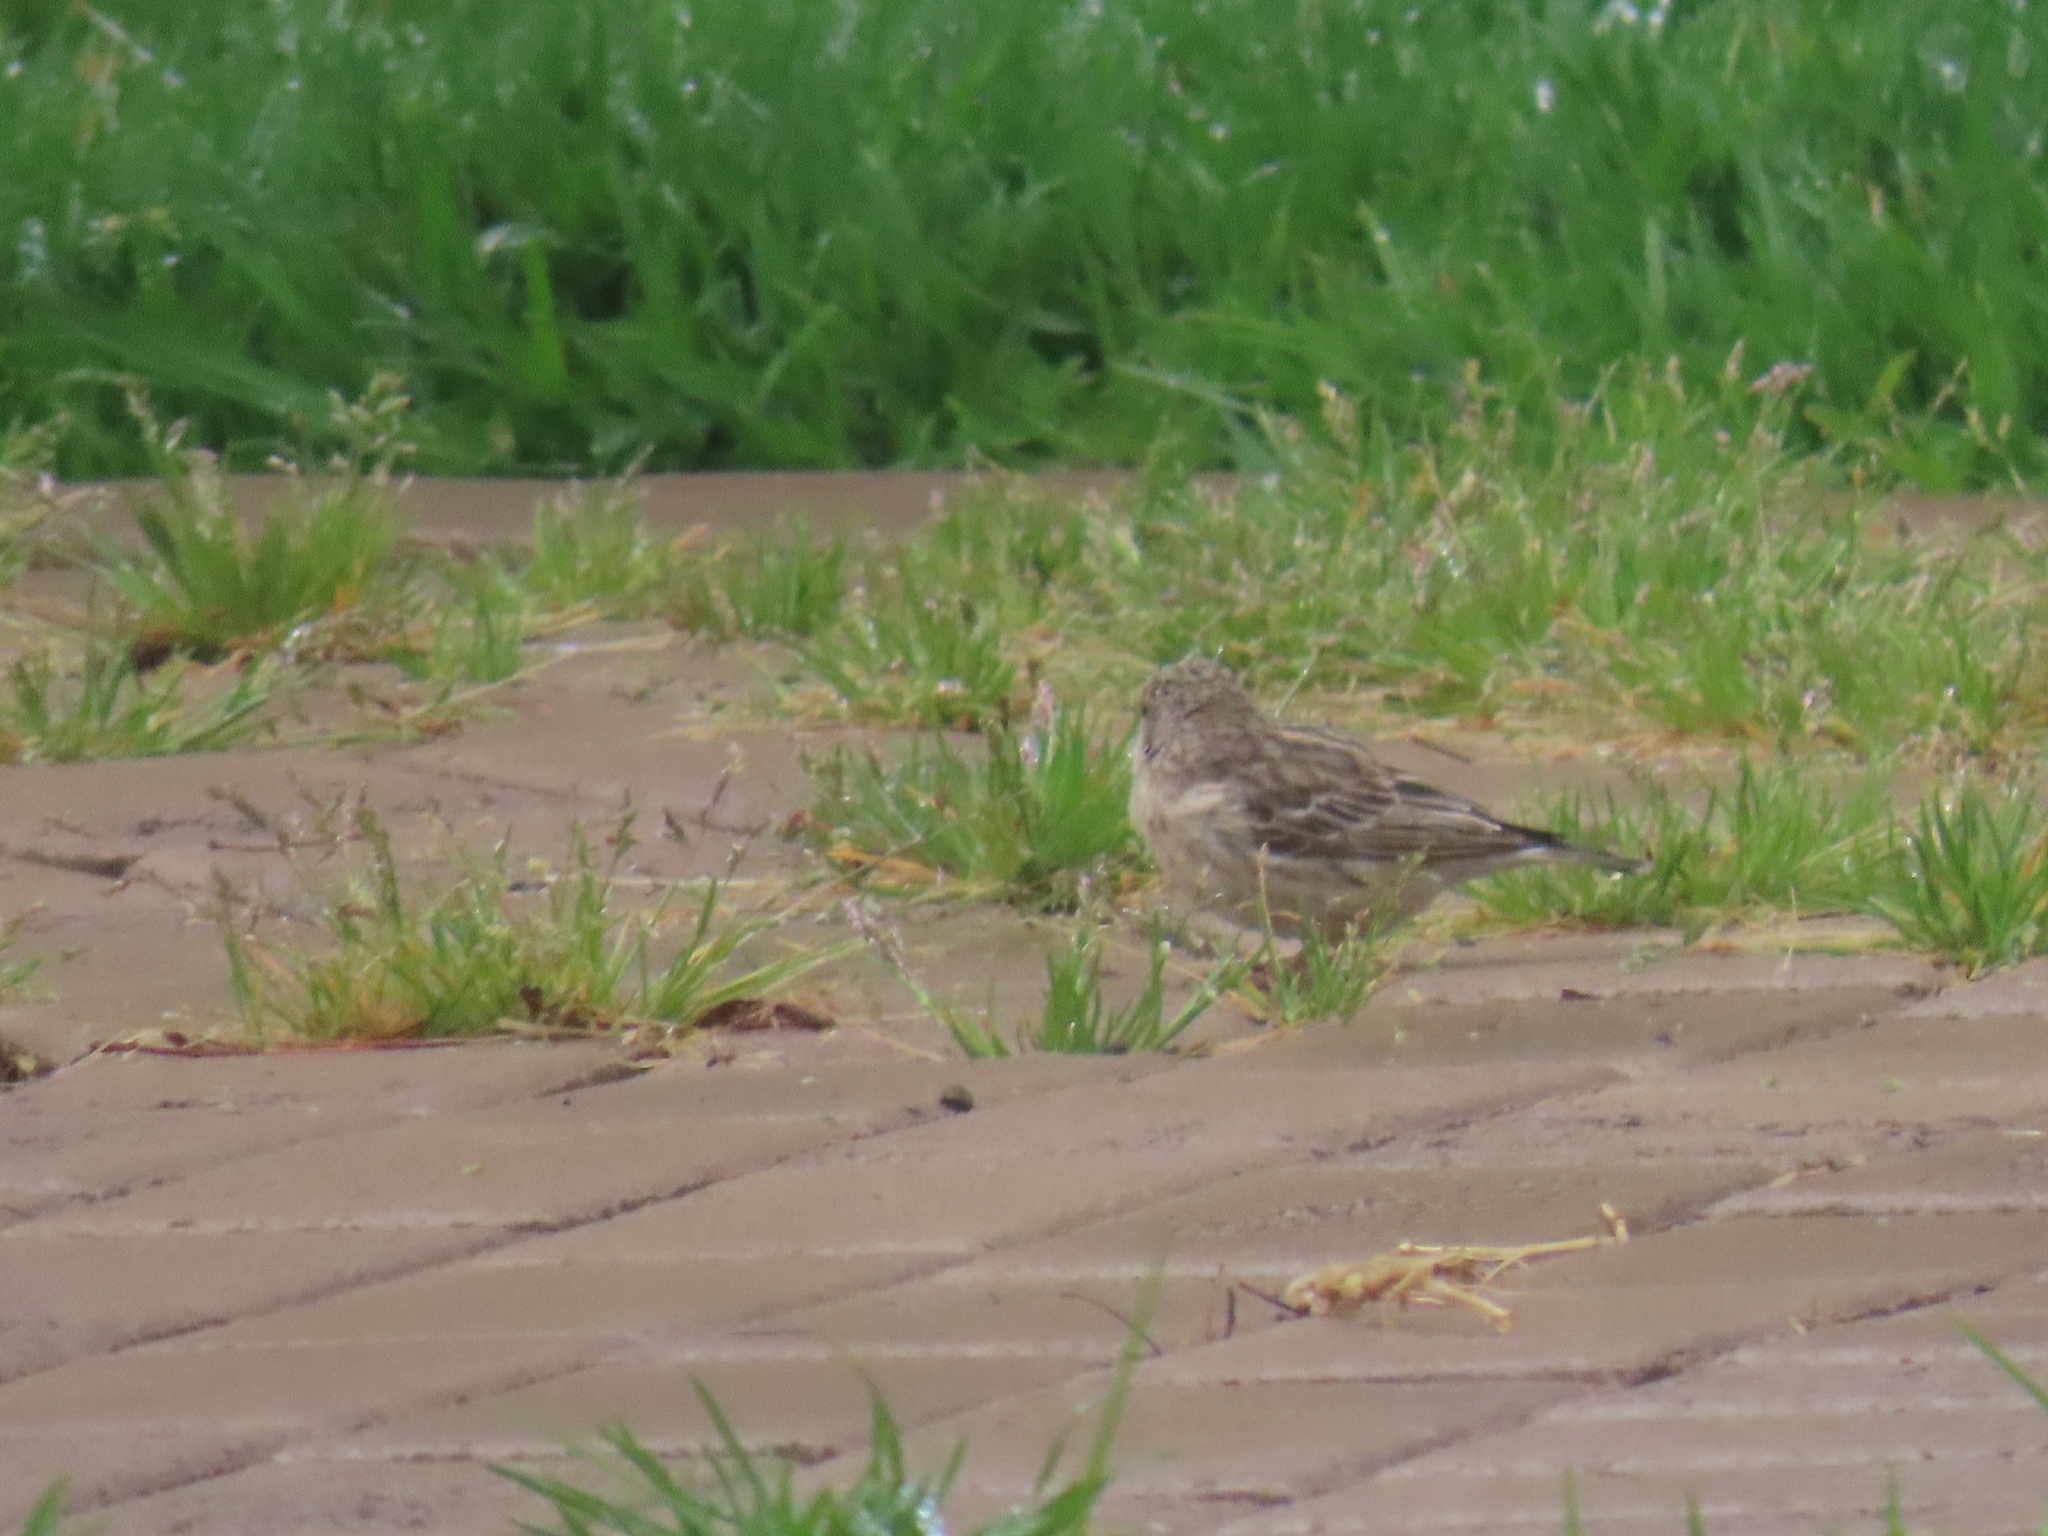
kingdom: Animalia
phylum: Chordata
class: Aves
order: Passeriformes
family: Fringillidae
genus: Crithagra
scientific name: Crithagra atrogularis
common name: Black-throated canary
